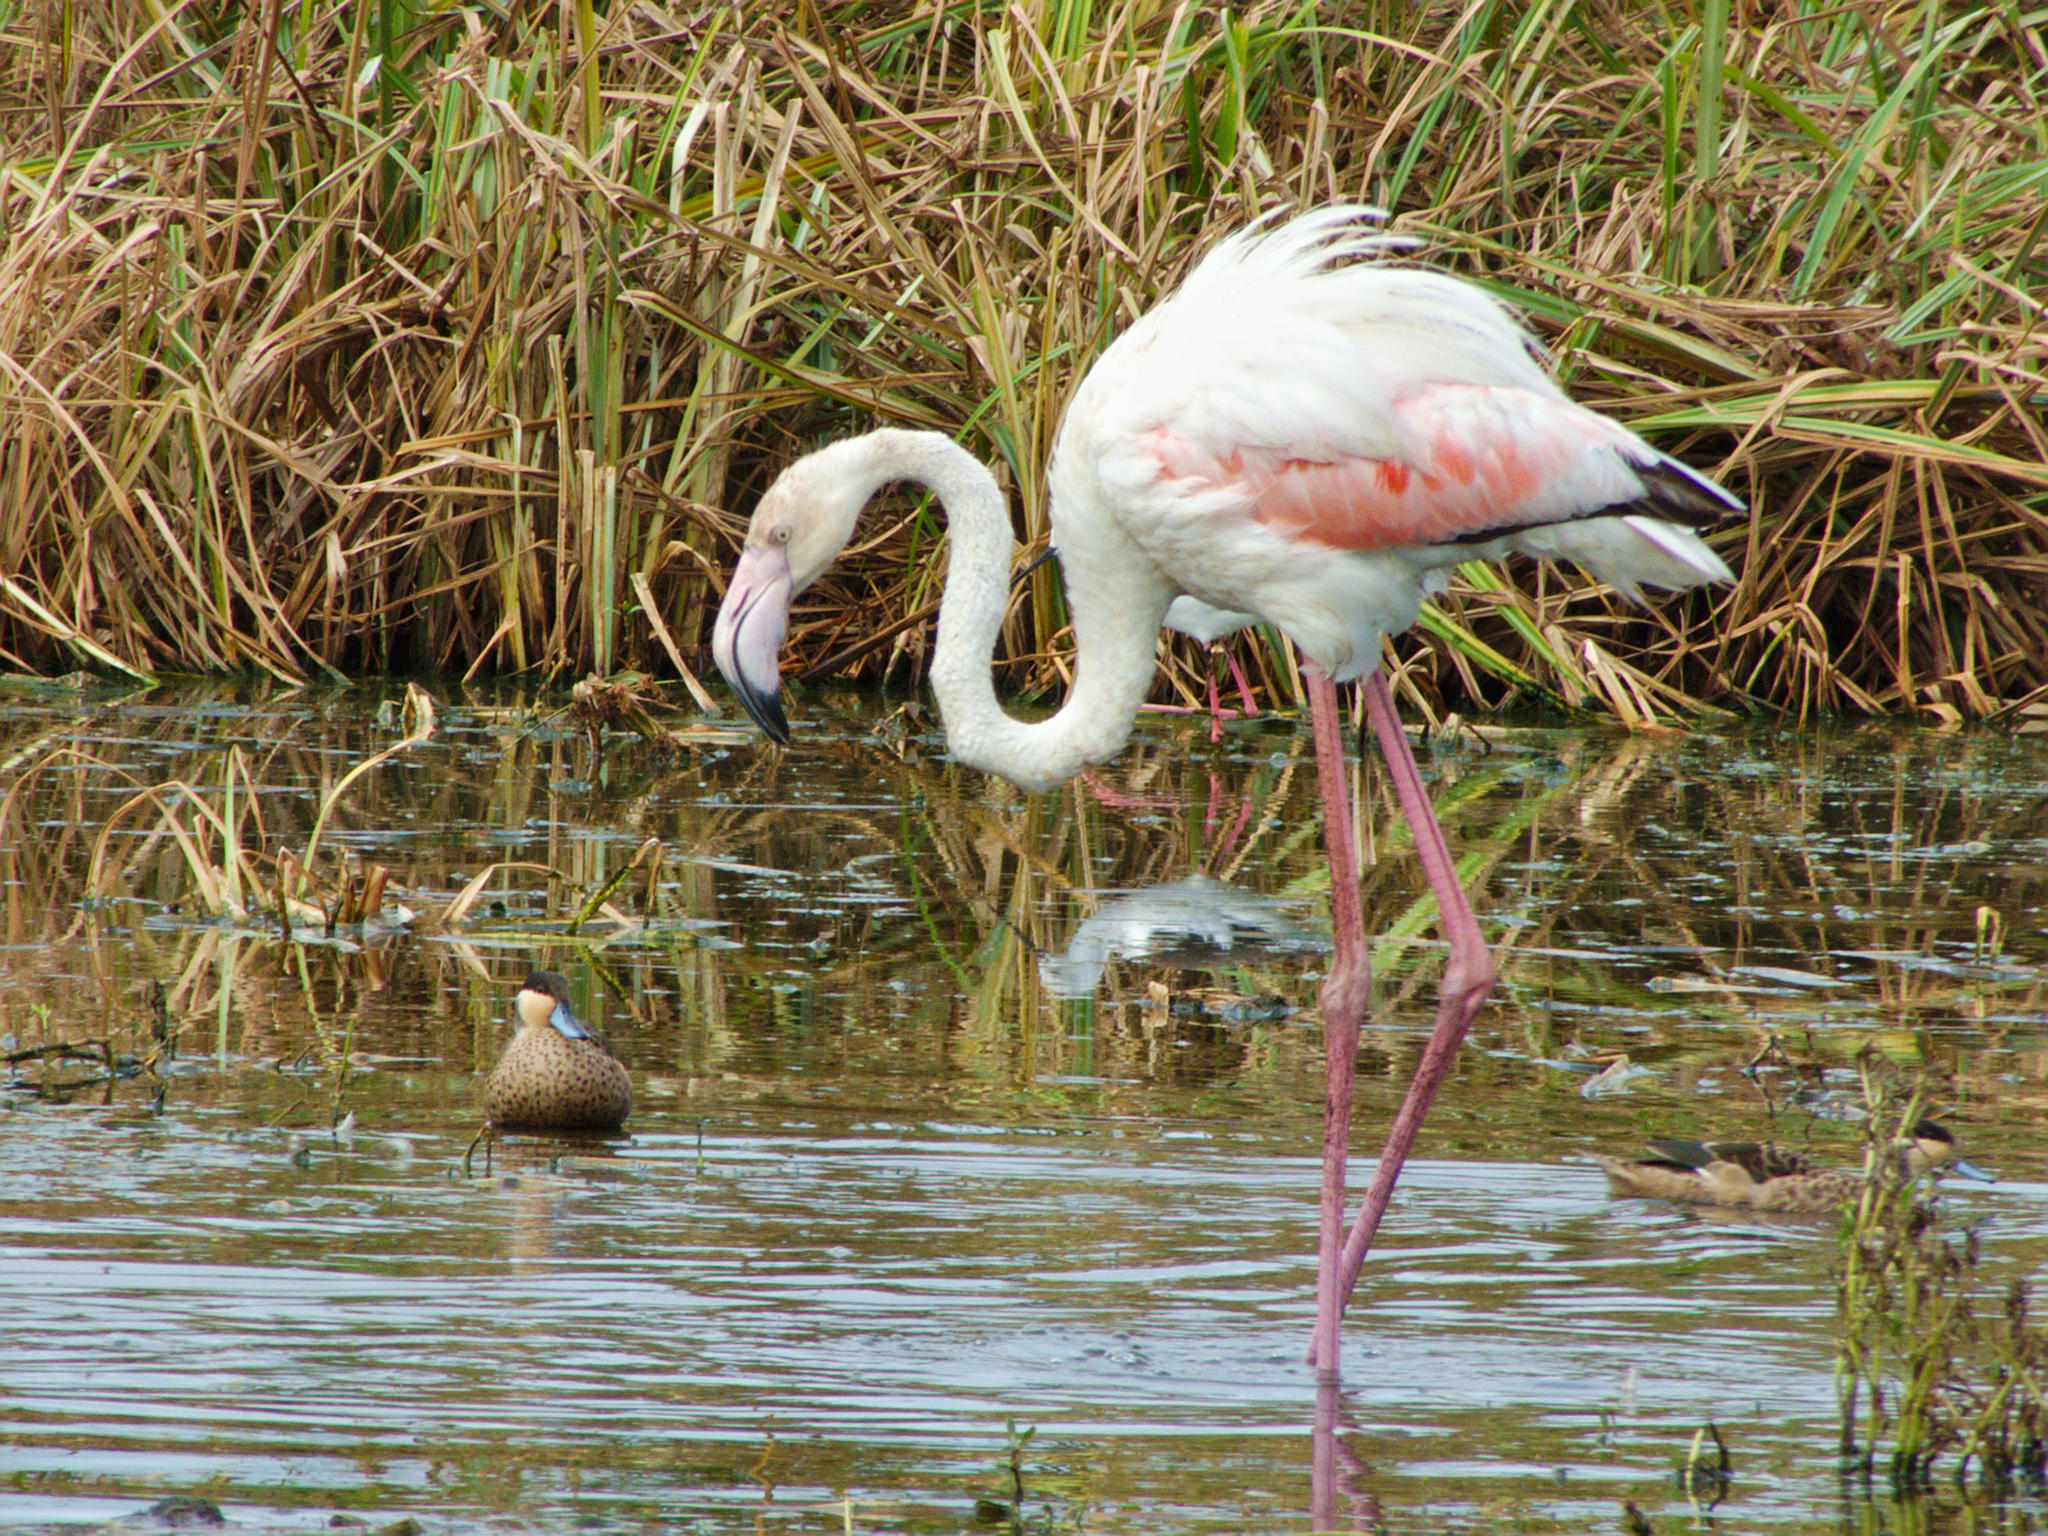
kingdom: Animalia
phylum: Chordata
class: Aves
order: Phoenicopteriformes
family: Phoenicopteridae
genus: Phoenicopterus
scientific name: Phoenicopterus roseus
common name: Greater flamingo
